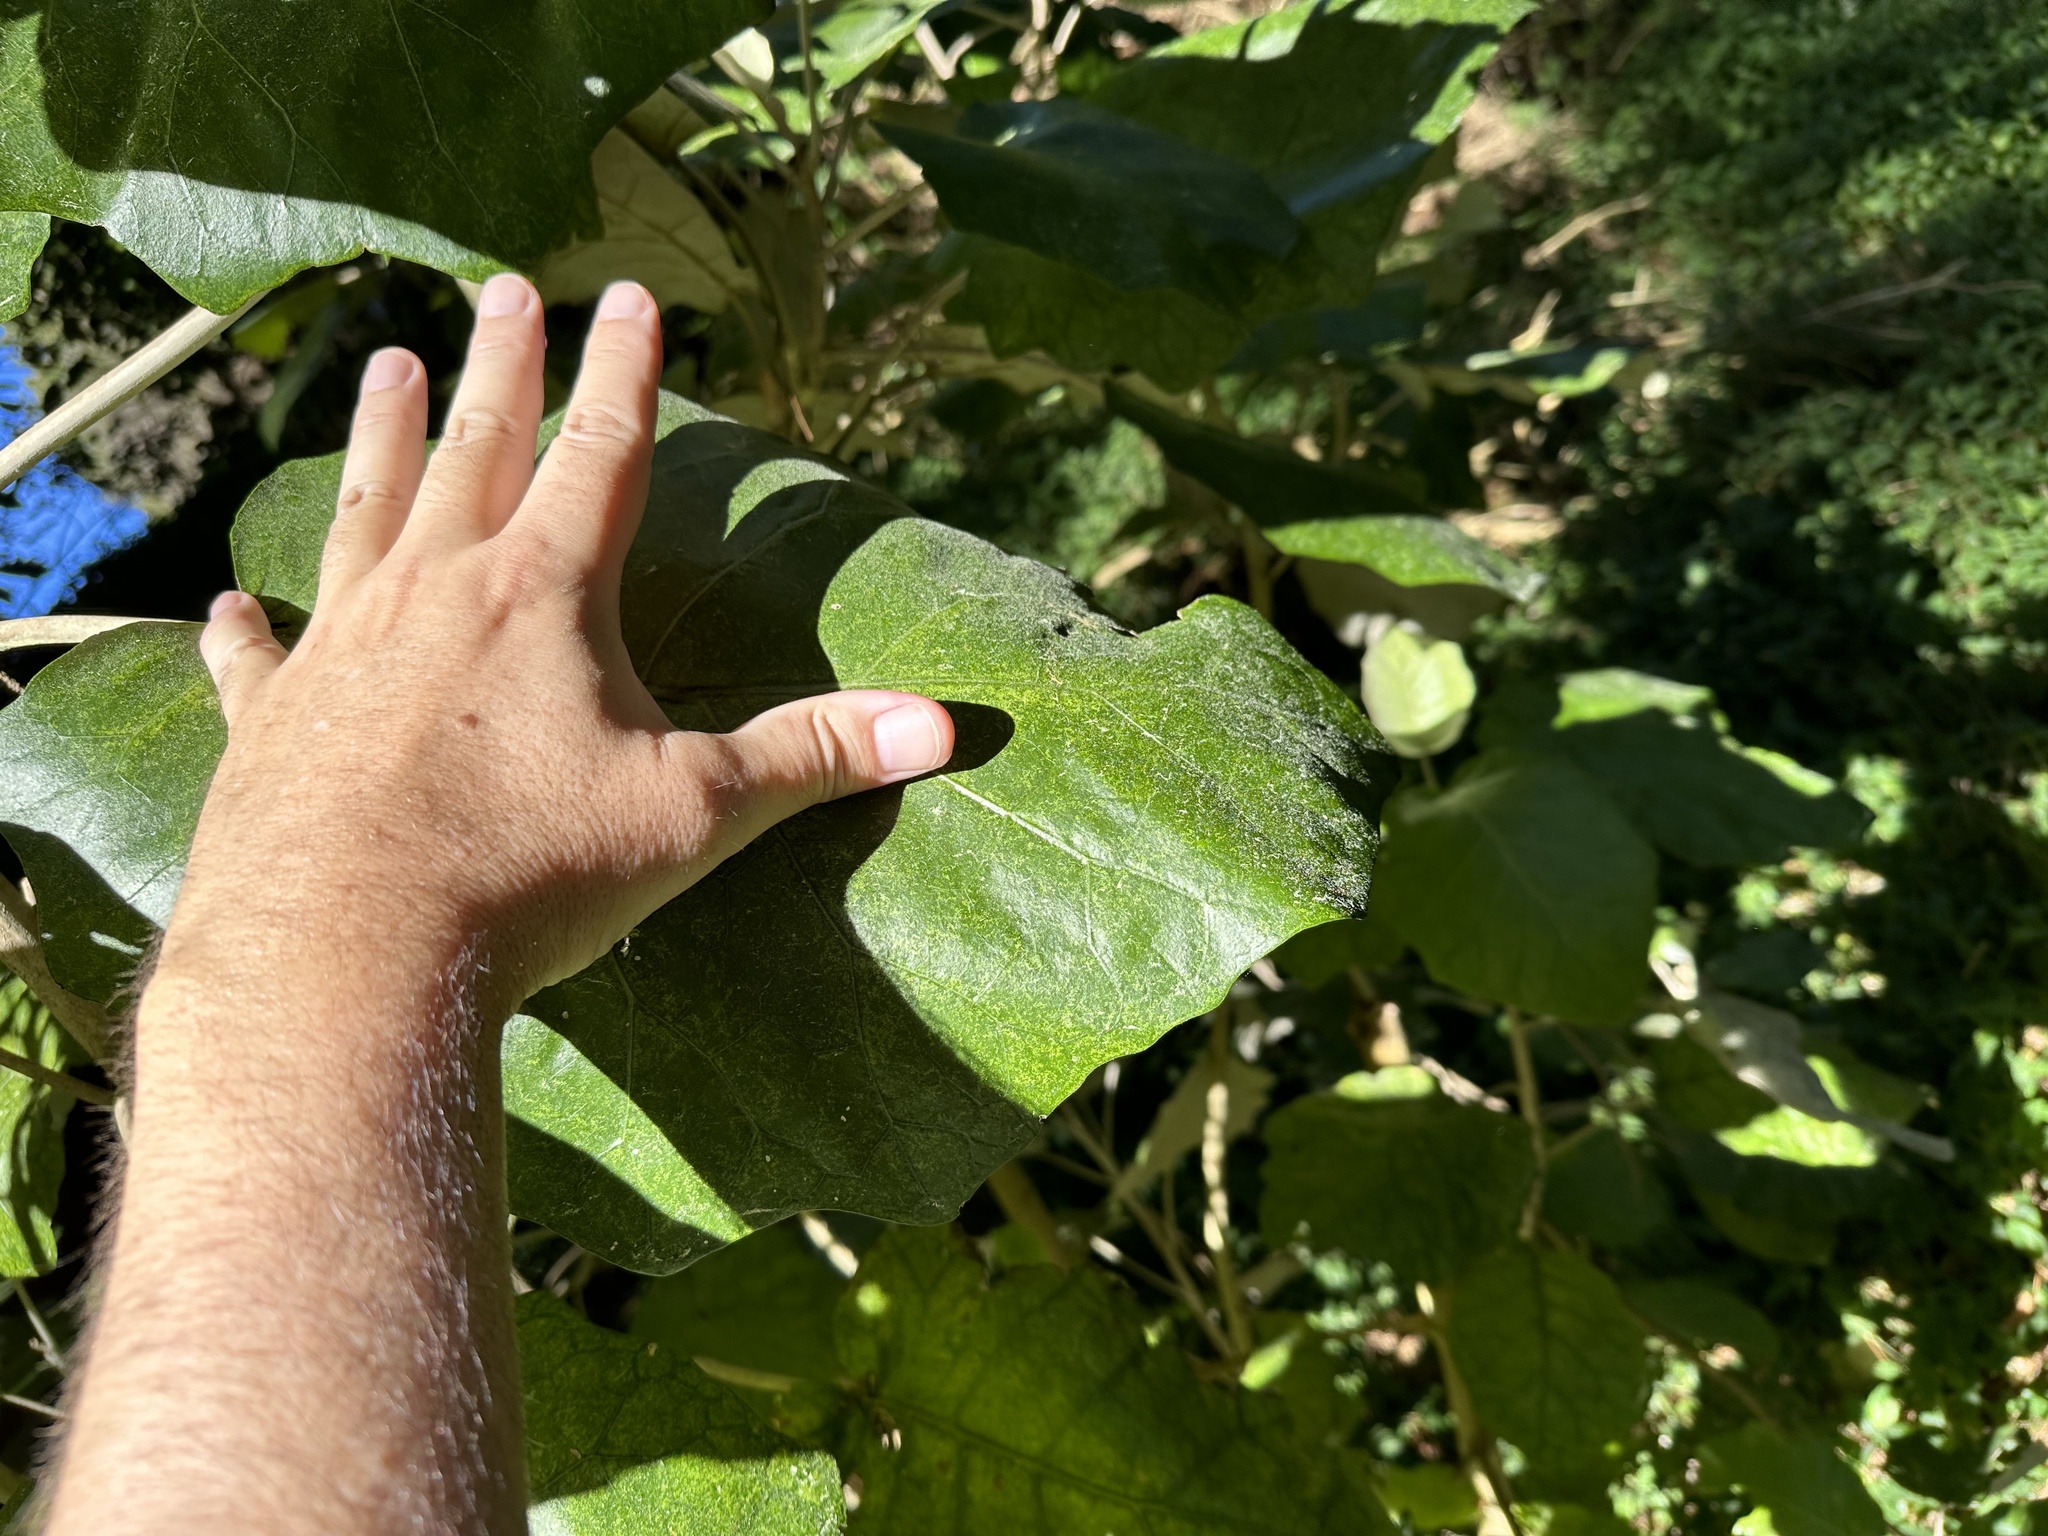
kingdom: Plantae
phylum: Tracheophyta
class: Magnoliopsida
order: Asterales
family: Asteraceae
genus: Brachyglottis
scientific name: Brachyglottis repanda
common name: Hedge ragwort
